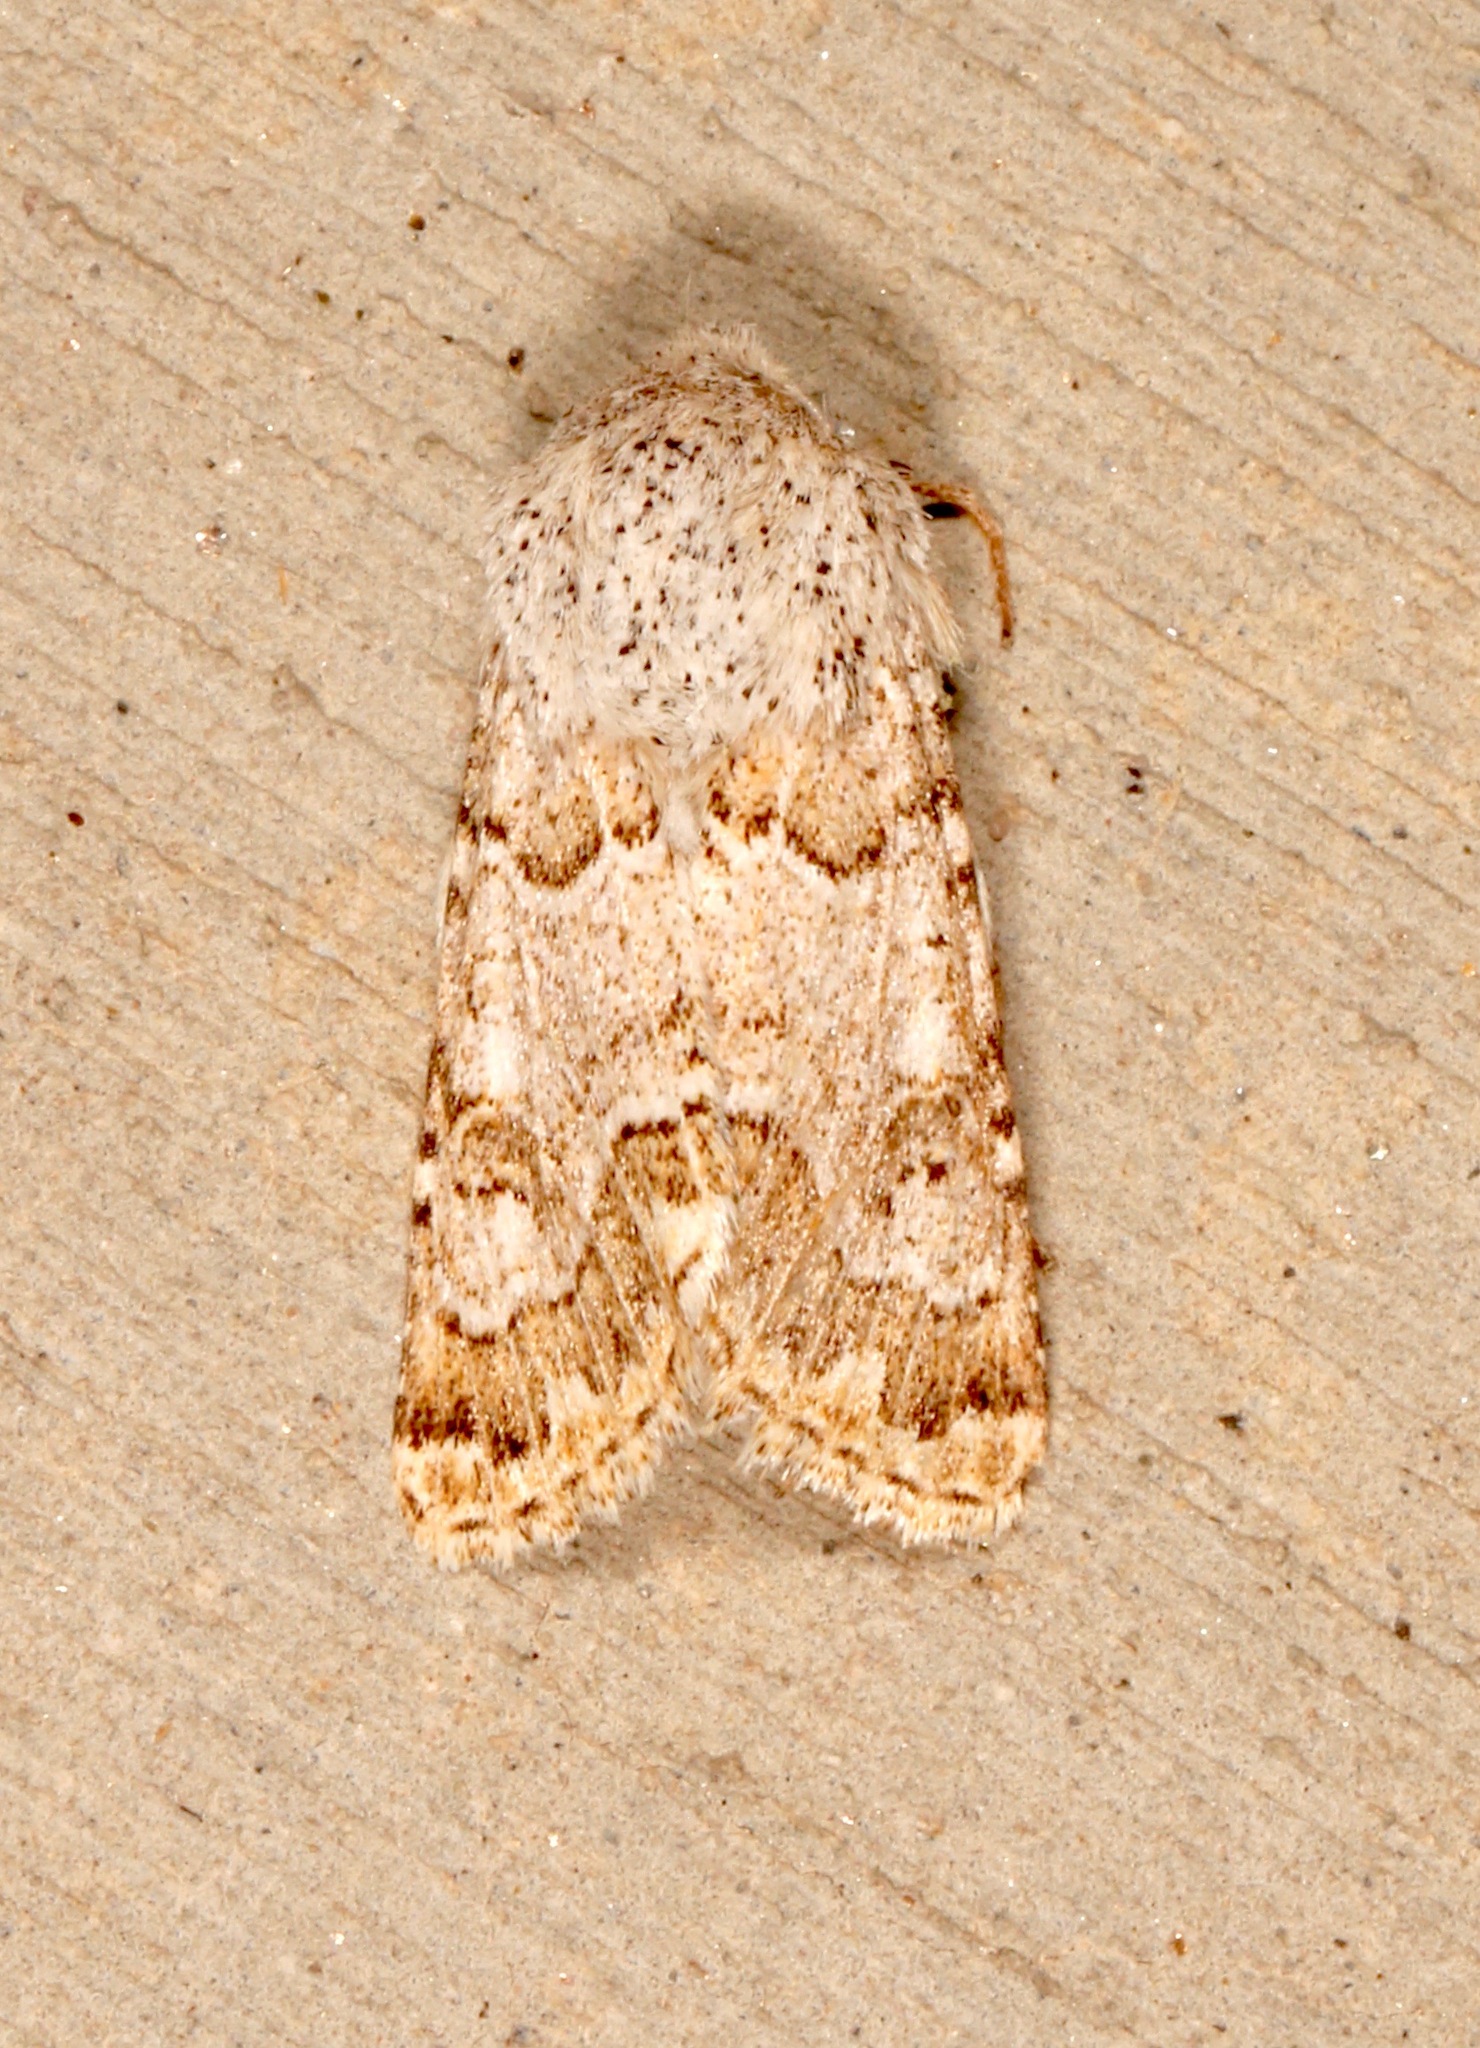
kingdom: Animalia
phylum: Arthropoda
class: Insecta
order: Lepidoptera
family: Noctuidae
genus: Schinia
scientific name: Schinia deserticola
